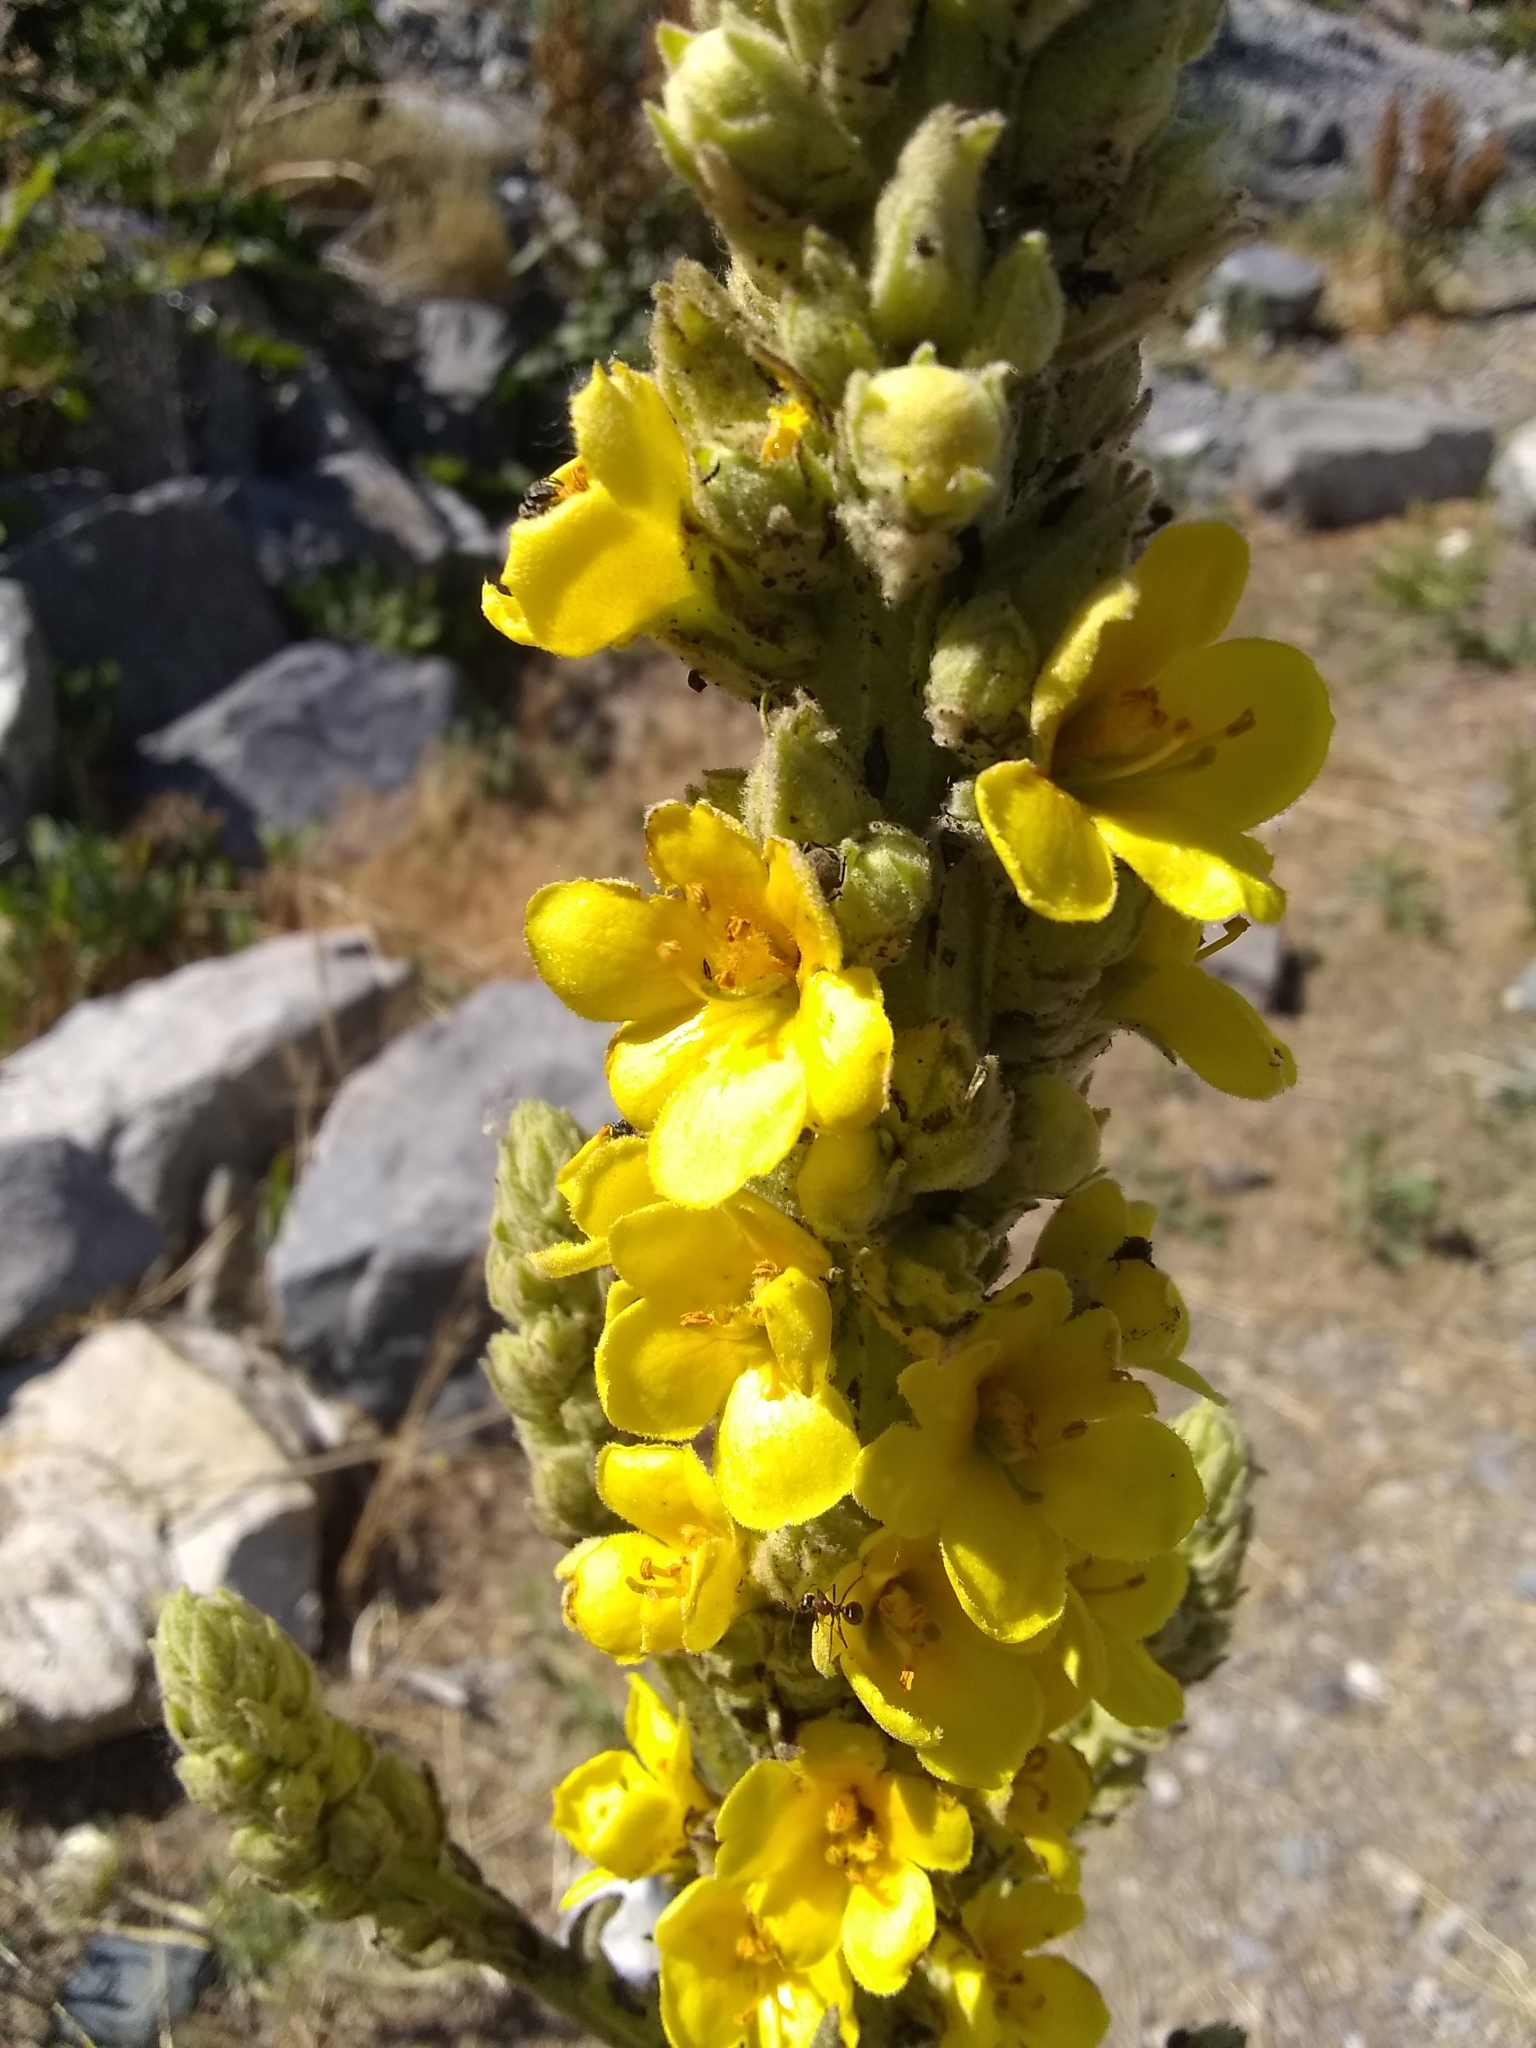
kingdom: Plantae
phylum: Tracheophyta
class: Magnoliopsida
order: Lamiales
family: Scrophulariaceae
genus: Verbascum
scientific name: Verbascum thapsus
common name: Common mullein
